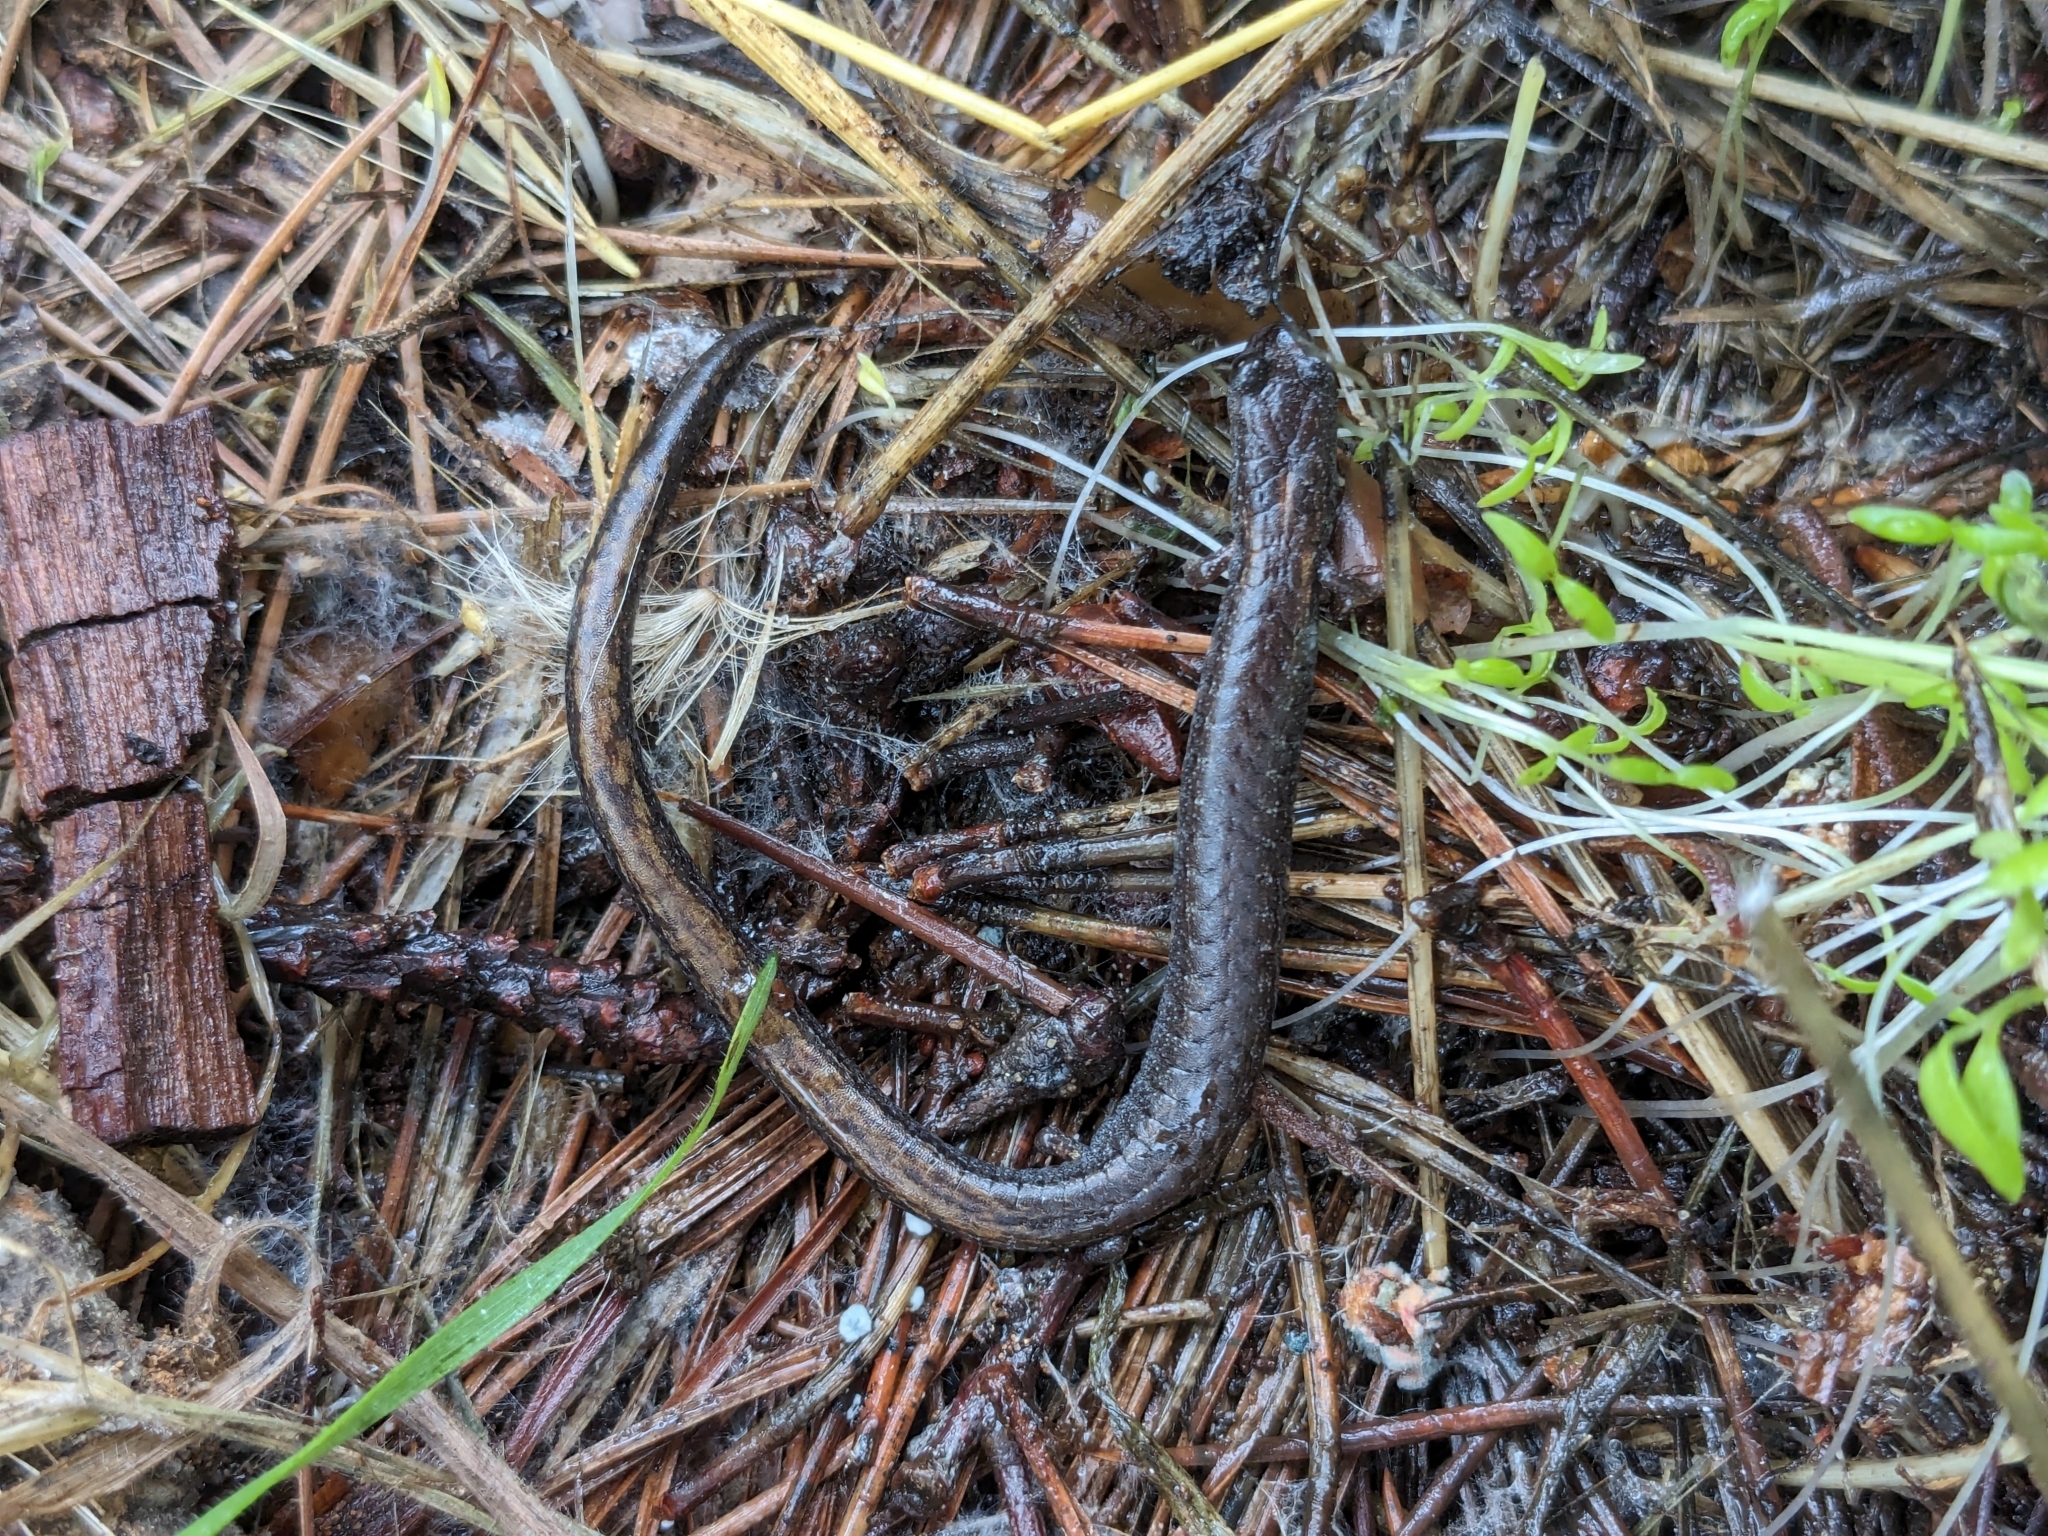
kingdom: Animalia
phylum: Chordata
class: Amphibia
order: Caudata
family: Plethodontidae
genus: Batrachoseps
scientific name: Batrachoseps attenuatus
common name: California slender salamander
